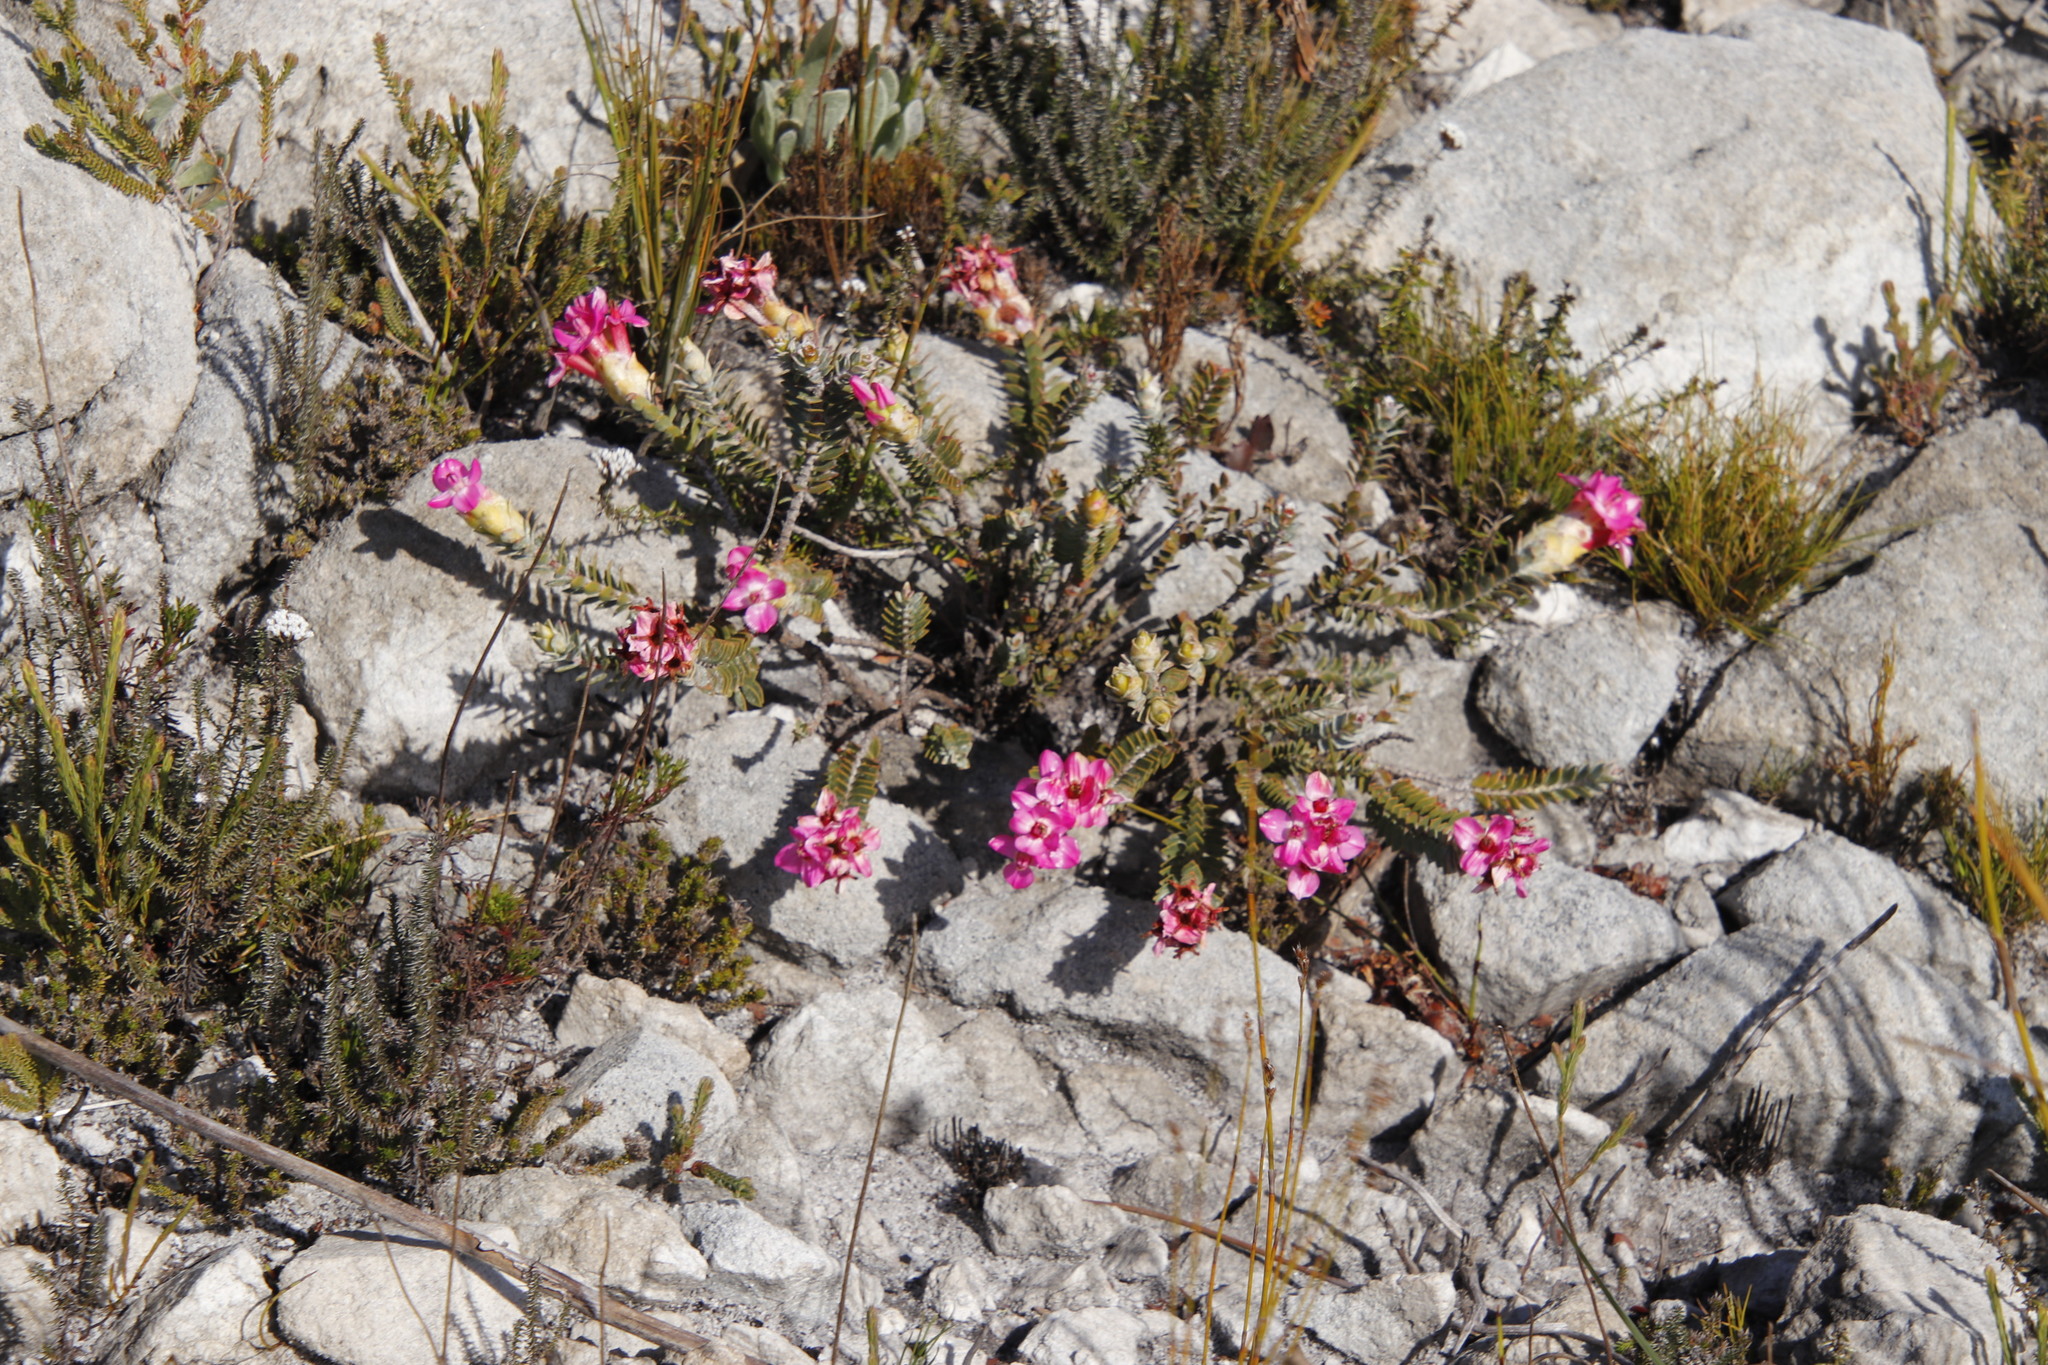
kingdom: Plantae
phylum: Tracheophyta
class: Magnoliopsida
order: Myrtales
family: Penaeaceae
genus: Saltera
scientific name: Saltera sarcocolla
